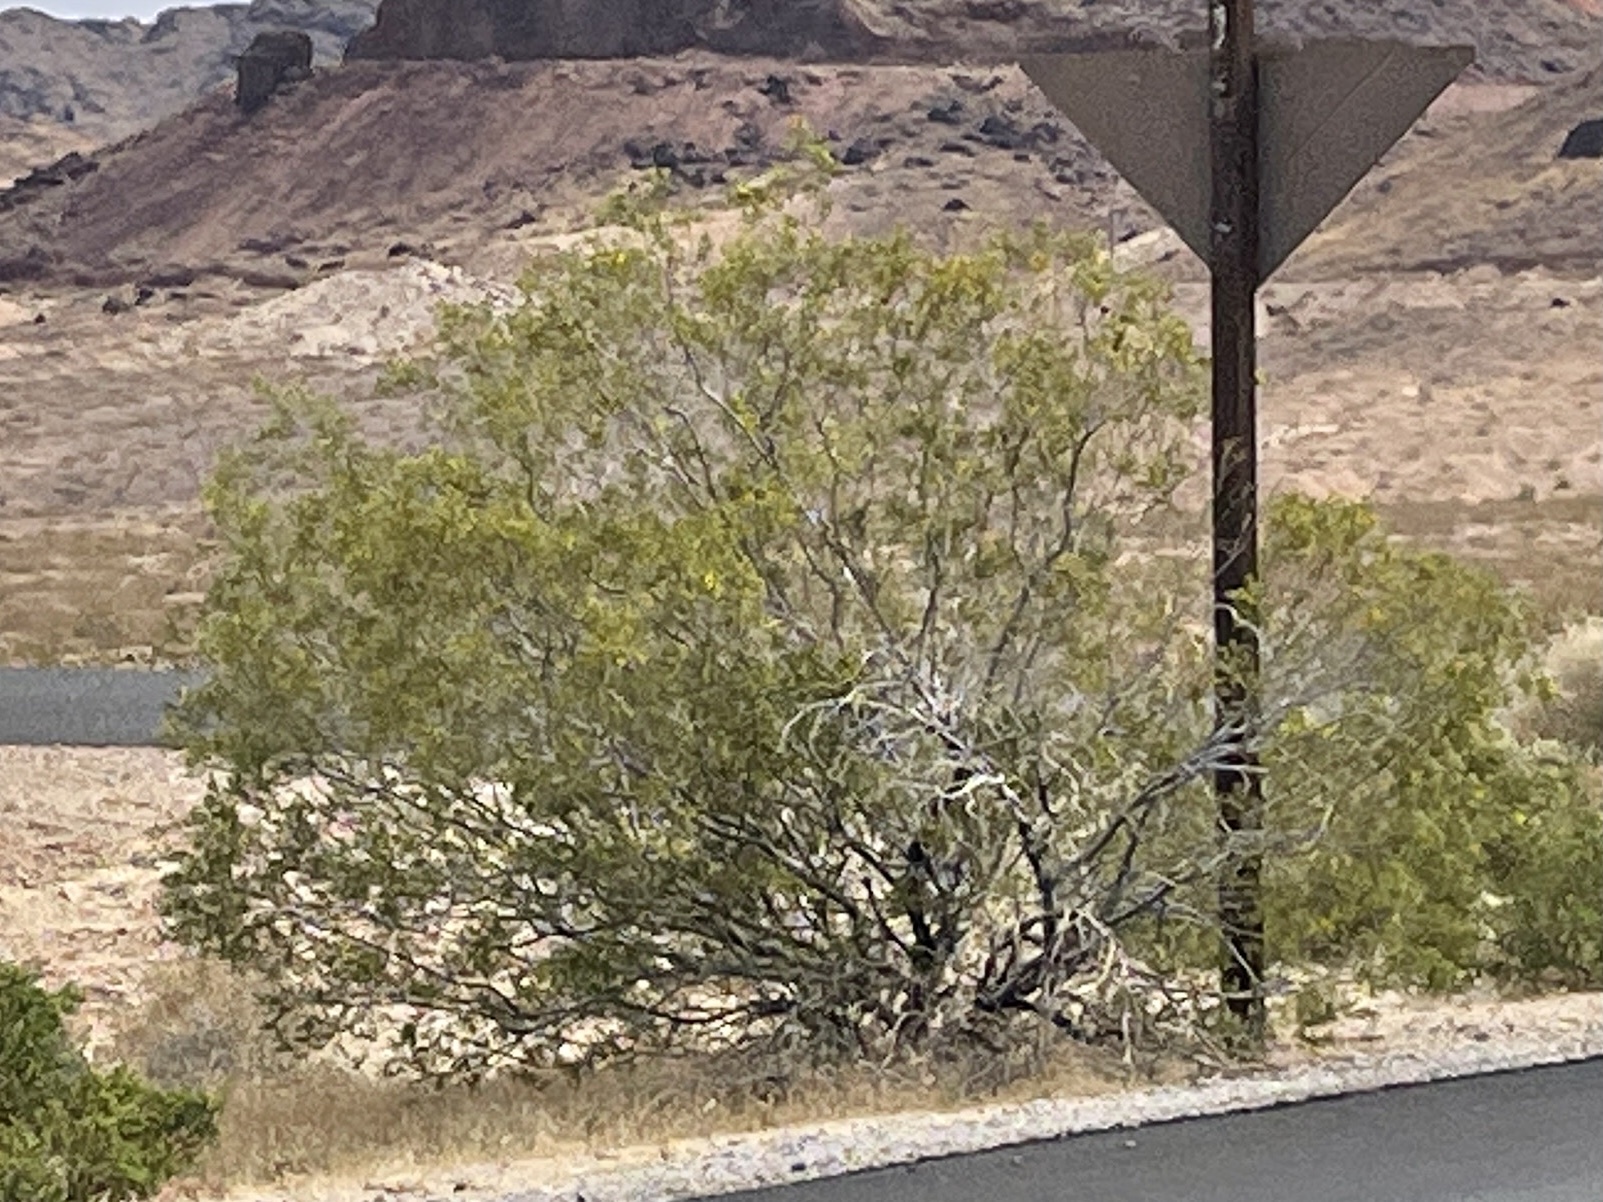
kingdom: Plantae
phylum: Tracheophyta
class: Magnoliopsida
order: Zygophyllales
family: Zygophyllaceae
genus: Larrea
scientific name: Larrea tridentata
